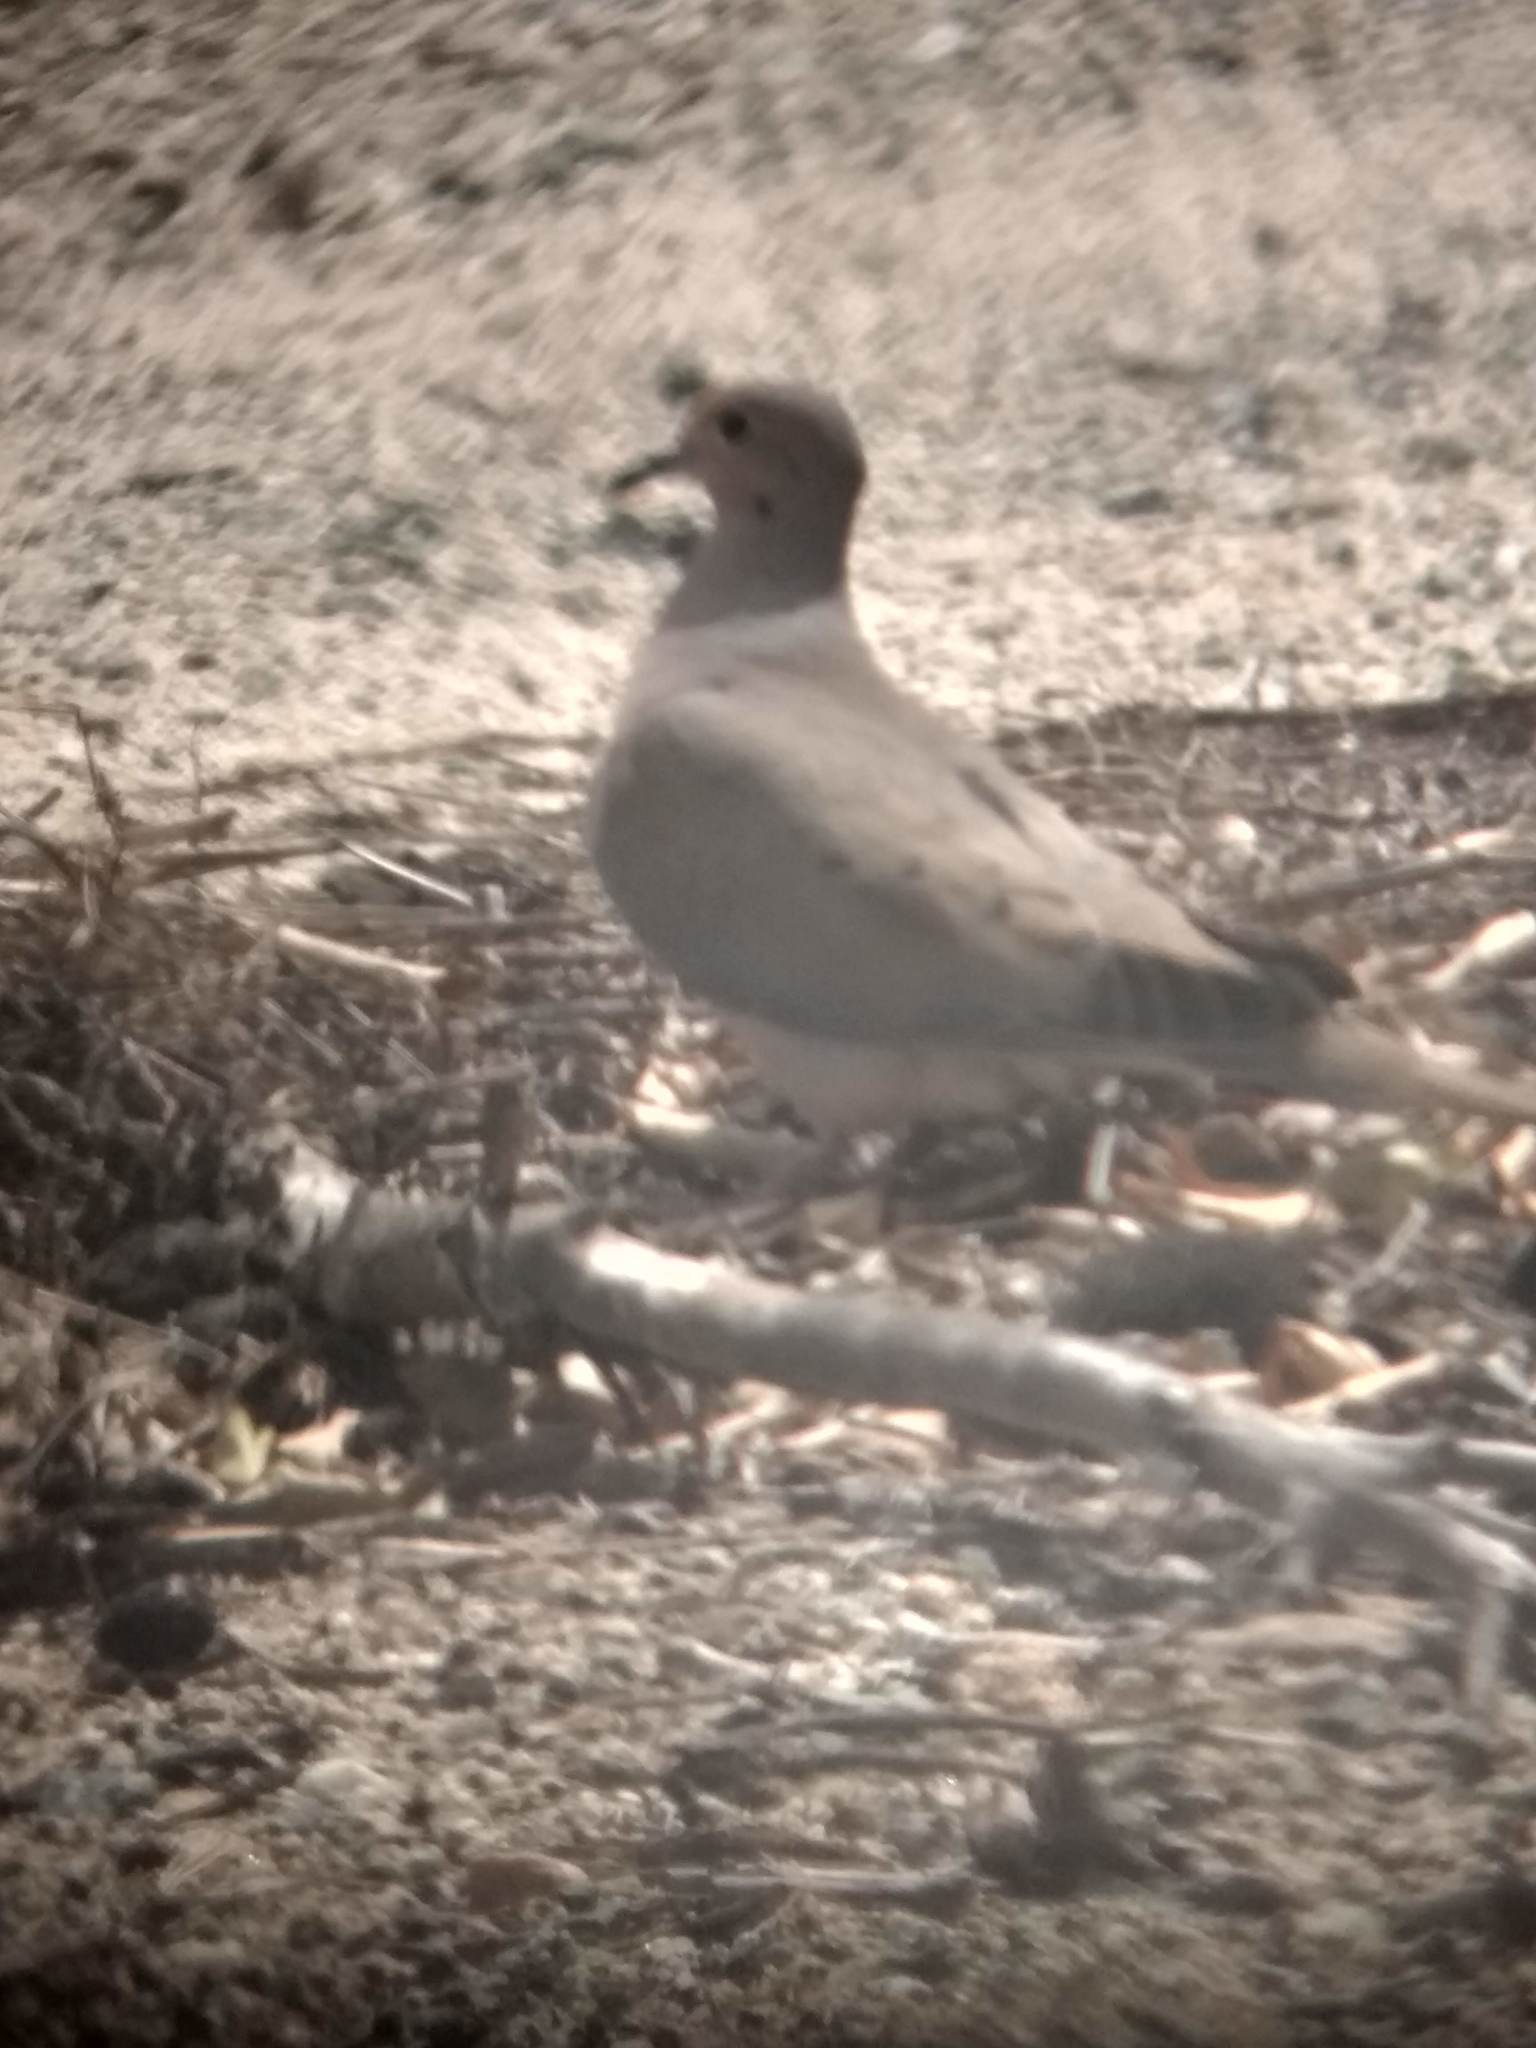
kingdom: Animalia
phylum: Chordata
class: Aves
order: Columbiformes
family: Columbidae
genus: Zenaida
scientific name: Zenaida macroura
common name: Mourning dove
